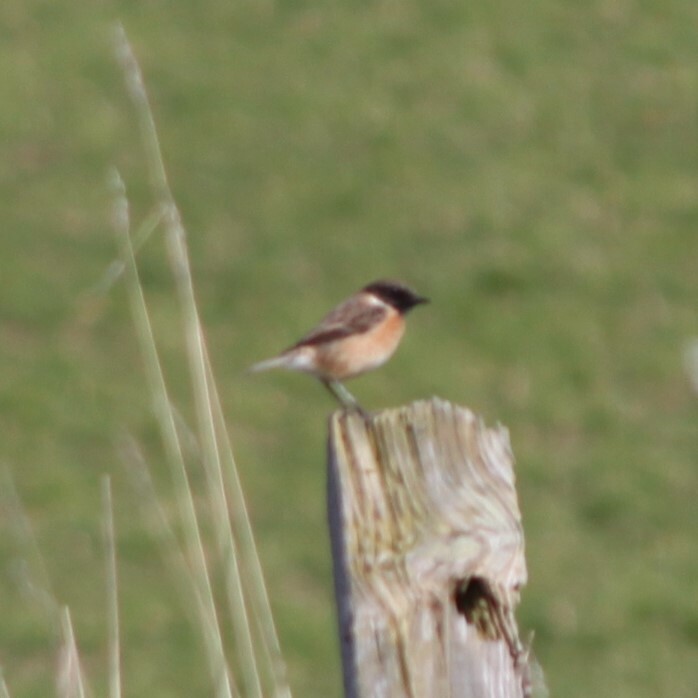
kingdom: Animalia
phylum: Chordata
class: Aves
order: Passeriformes
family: Muscicapidae
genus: Saxicola
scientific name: Saxicola rubicola
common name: European stonechat
